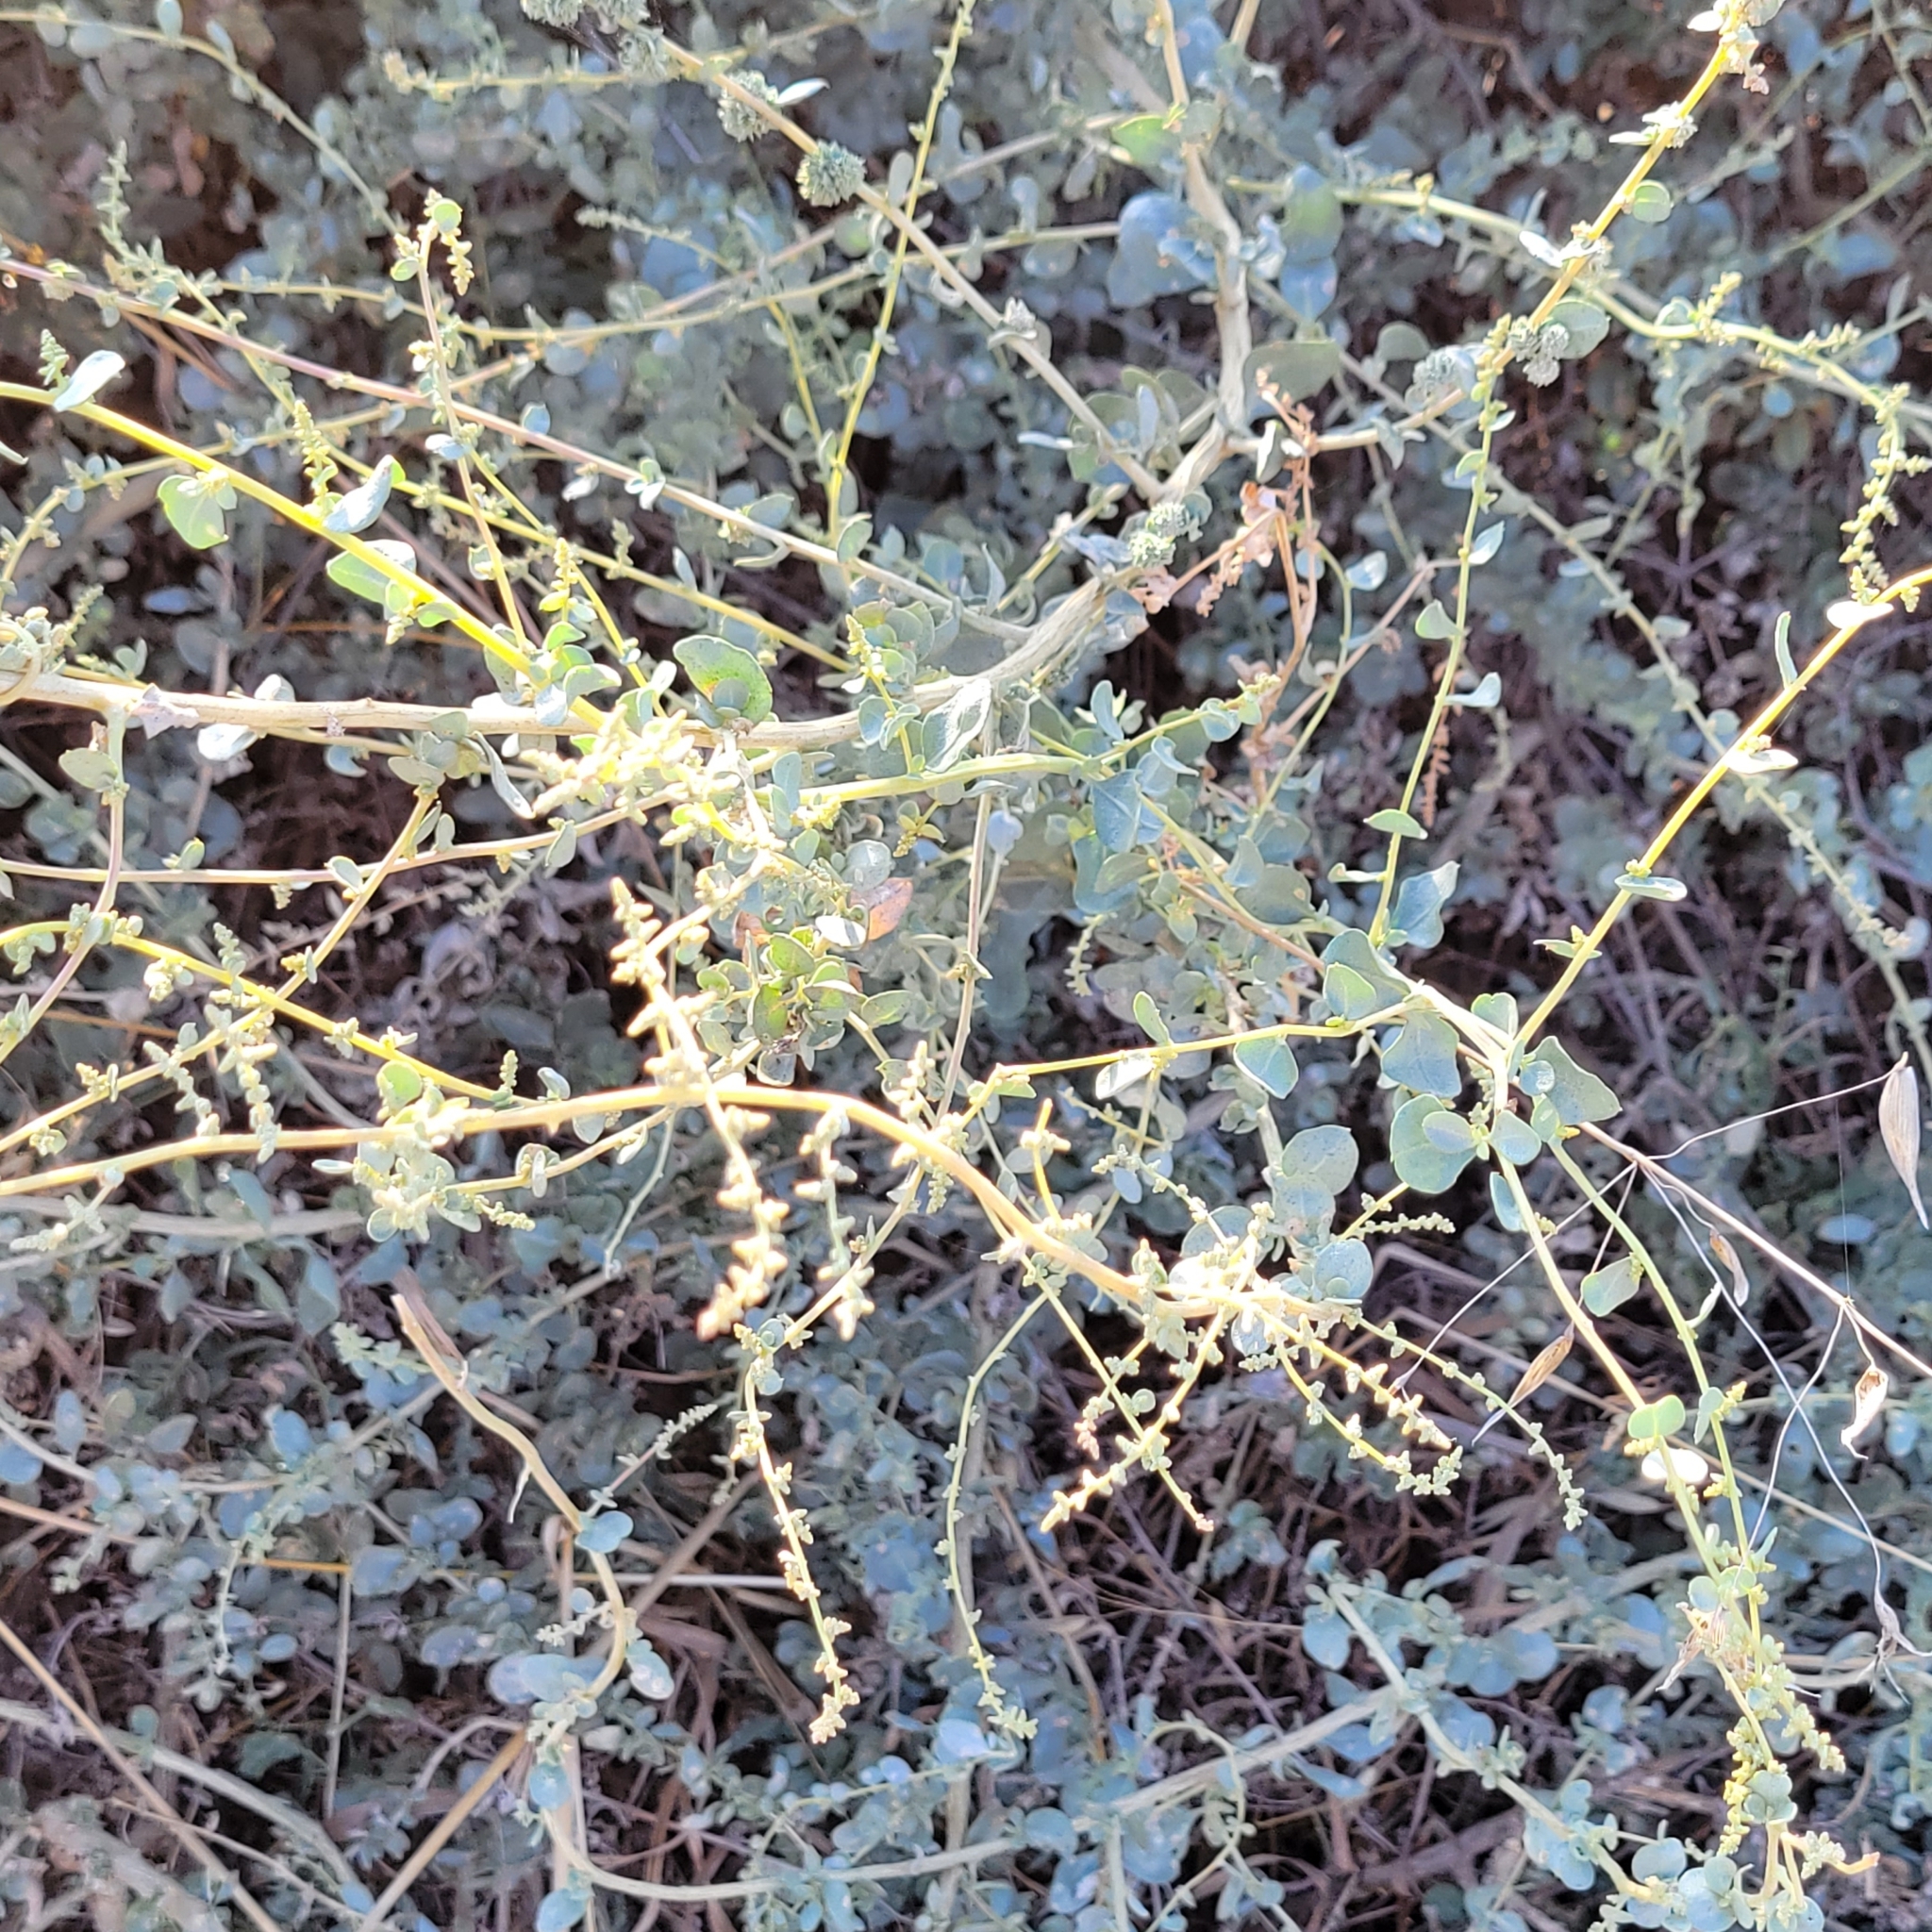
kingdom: Plantae
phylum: Tracheophyta
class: Magnoliopsida
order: Caryophyllales
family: Amaranthaceae
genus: Atriplex
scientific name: Atriplex halimus
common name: Shrubby orache
